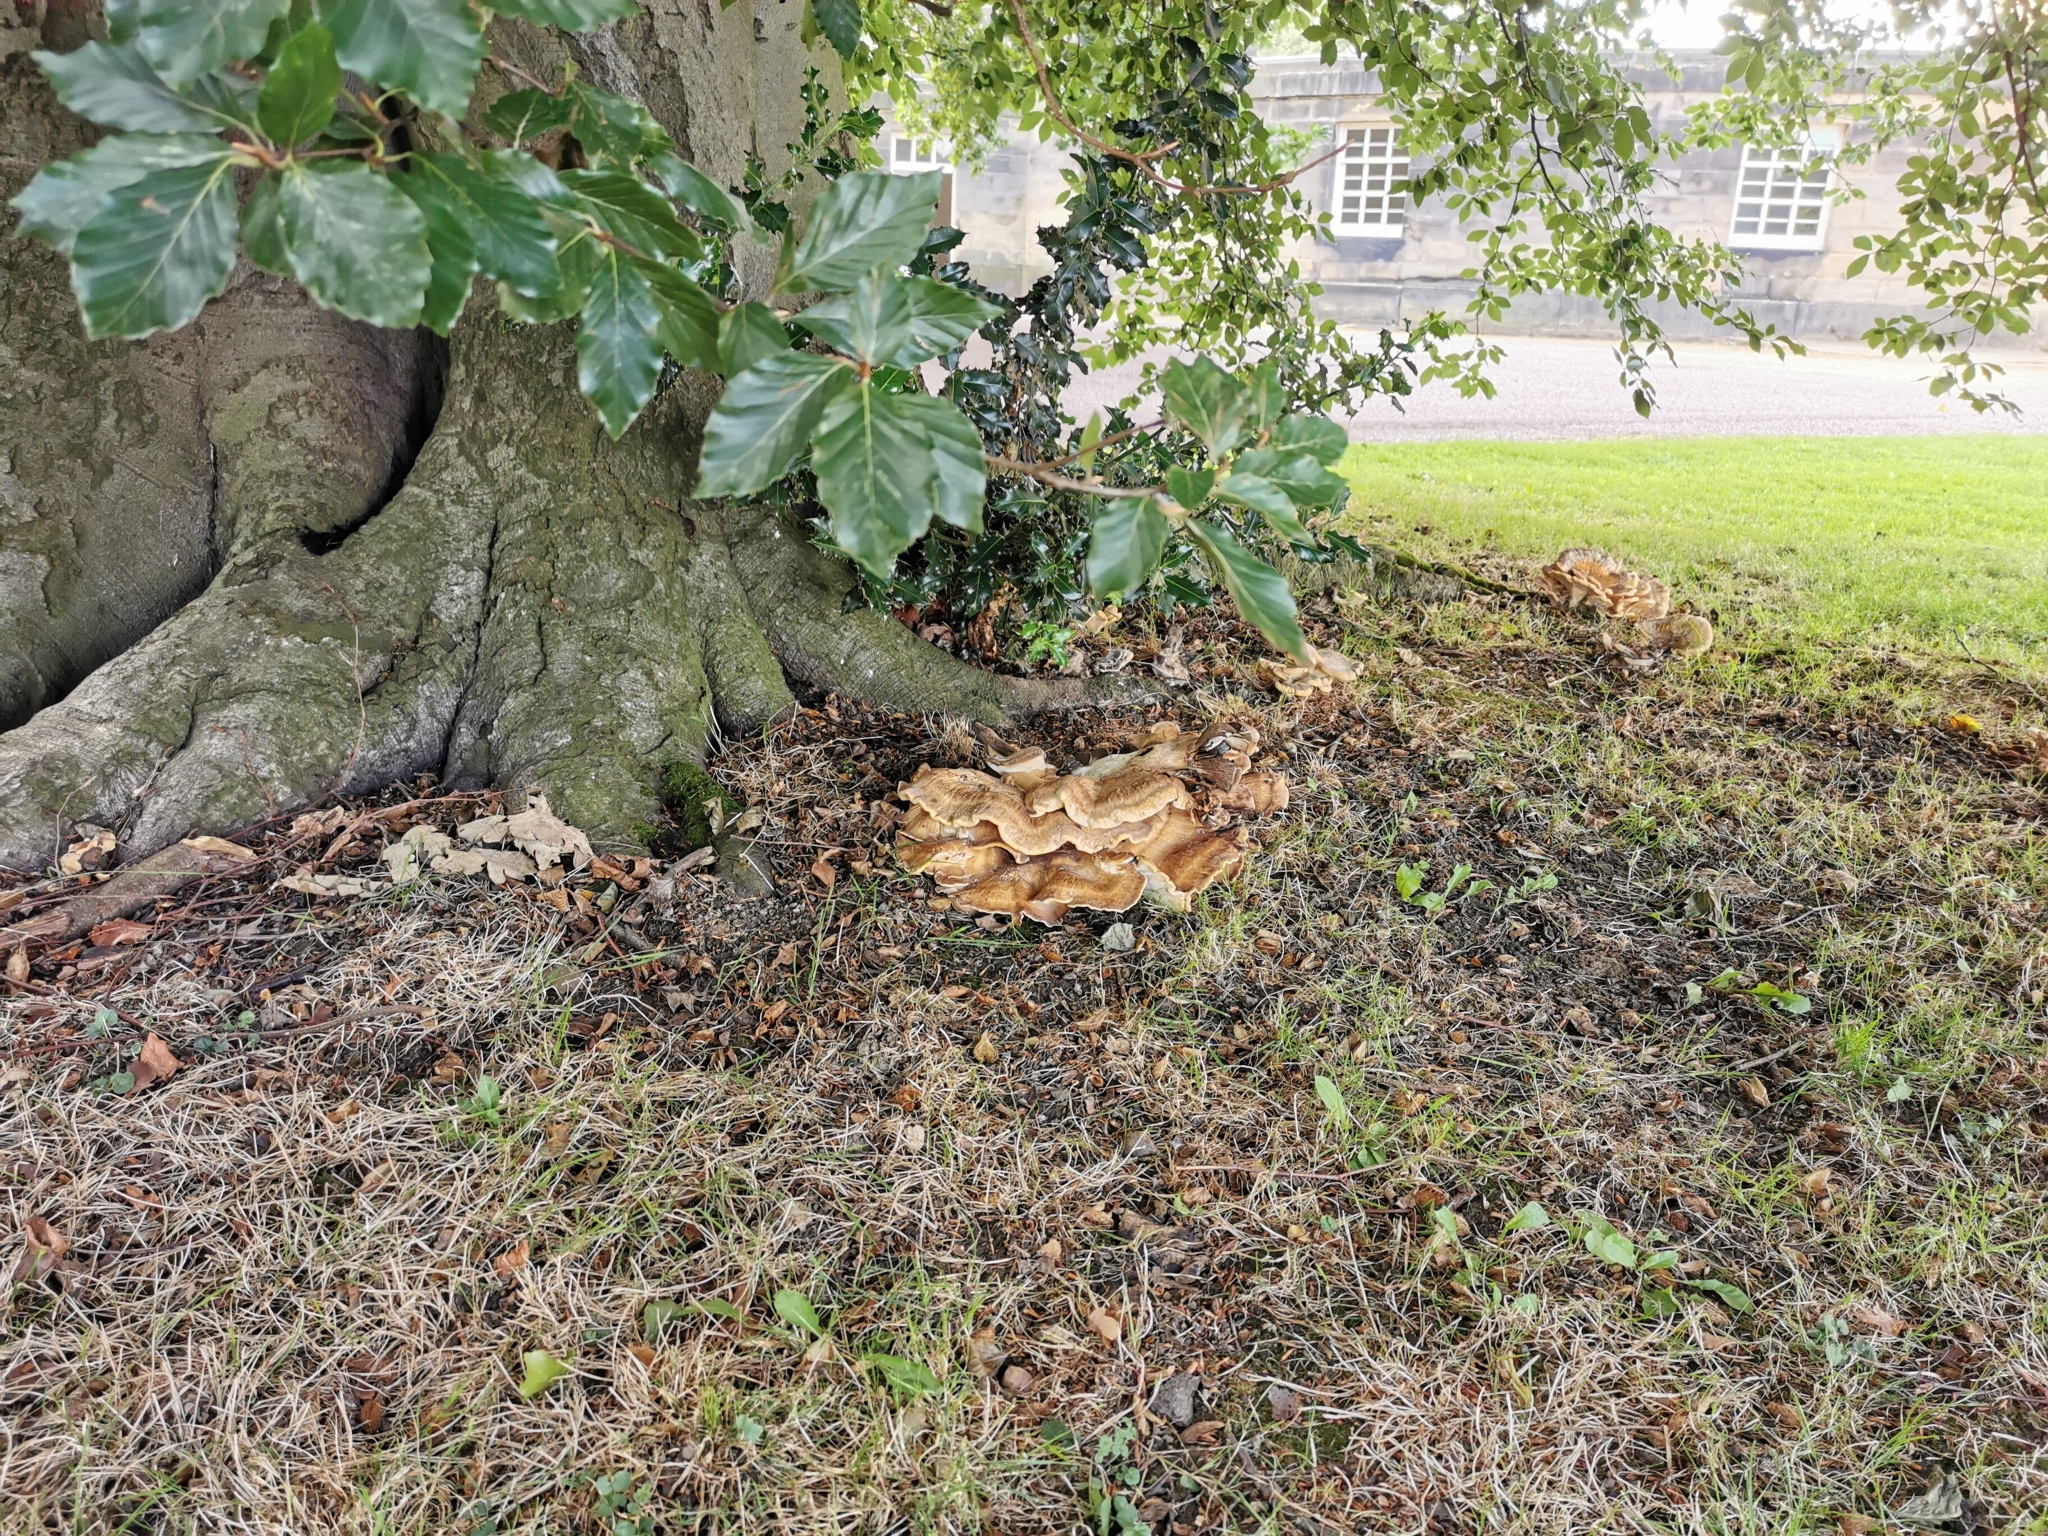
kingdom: Fungi
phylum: Basidiomycota
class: Agaricomycetes
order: Polyporales
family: Laetiporaceae
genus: Laetiporus
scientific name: Laetiporus sulphureus
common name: Chicken of the woods
